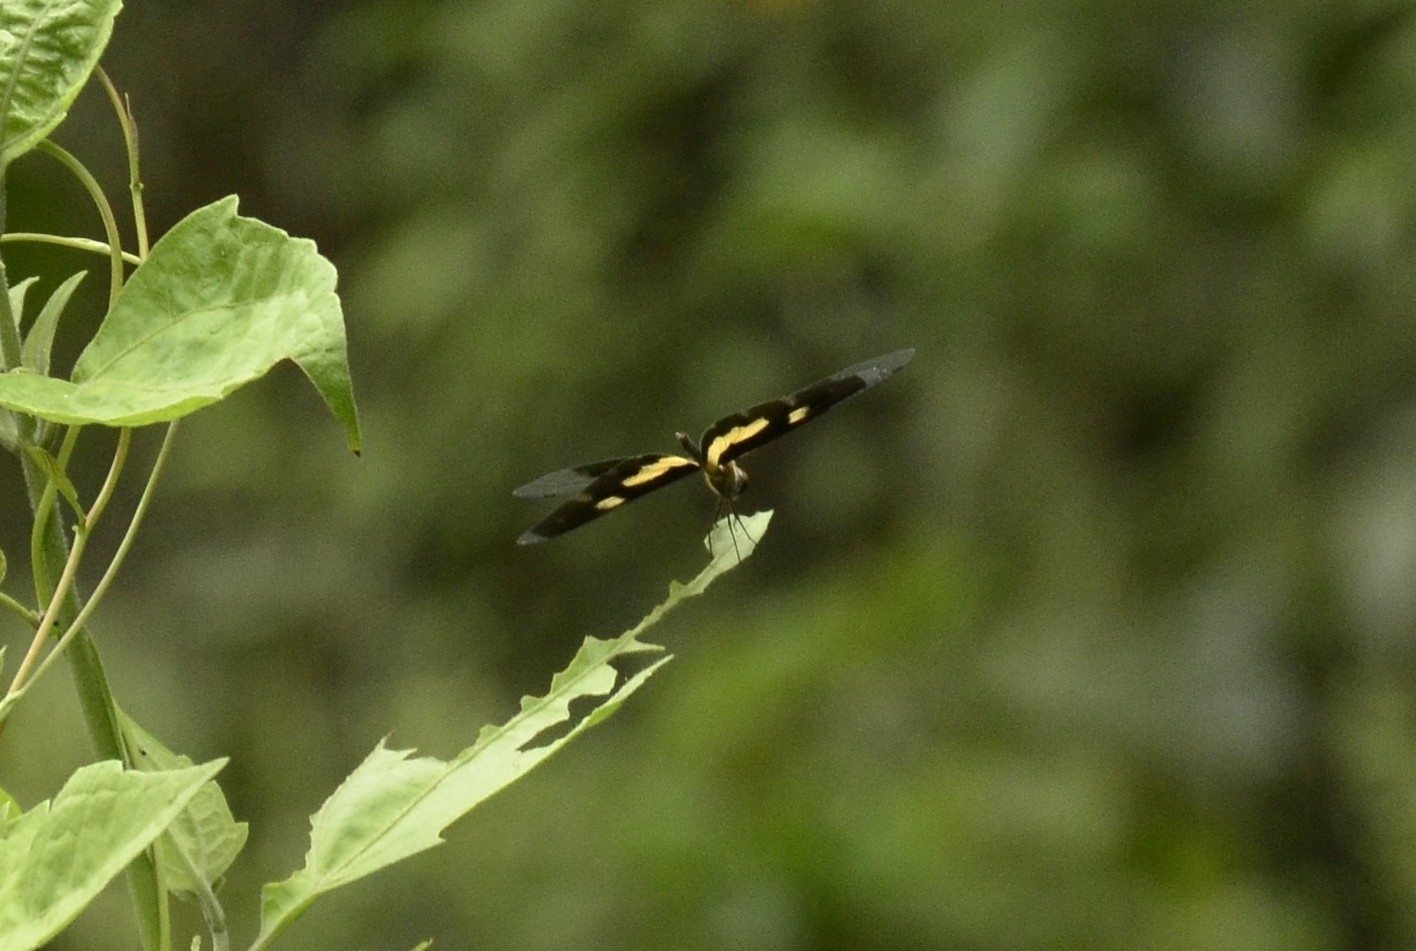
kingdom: Animalia
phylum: Arthropoda
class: Insecta
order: Odonata
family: Libellulidae
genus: Rhyothemis
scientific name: Rhyothemis variegata
